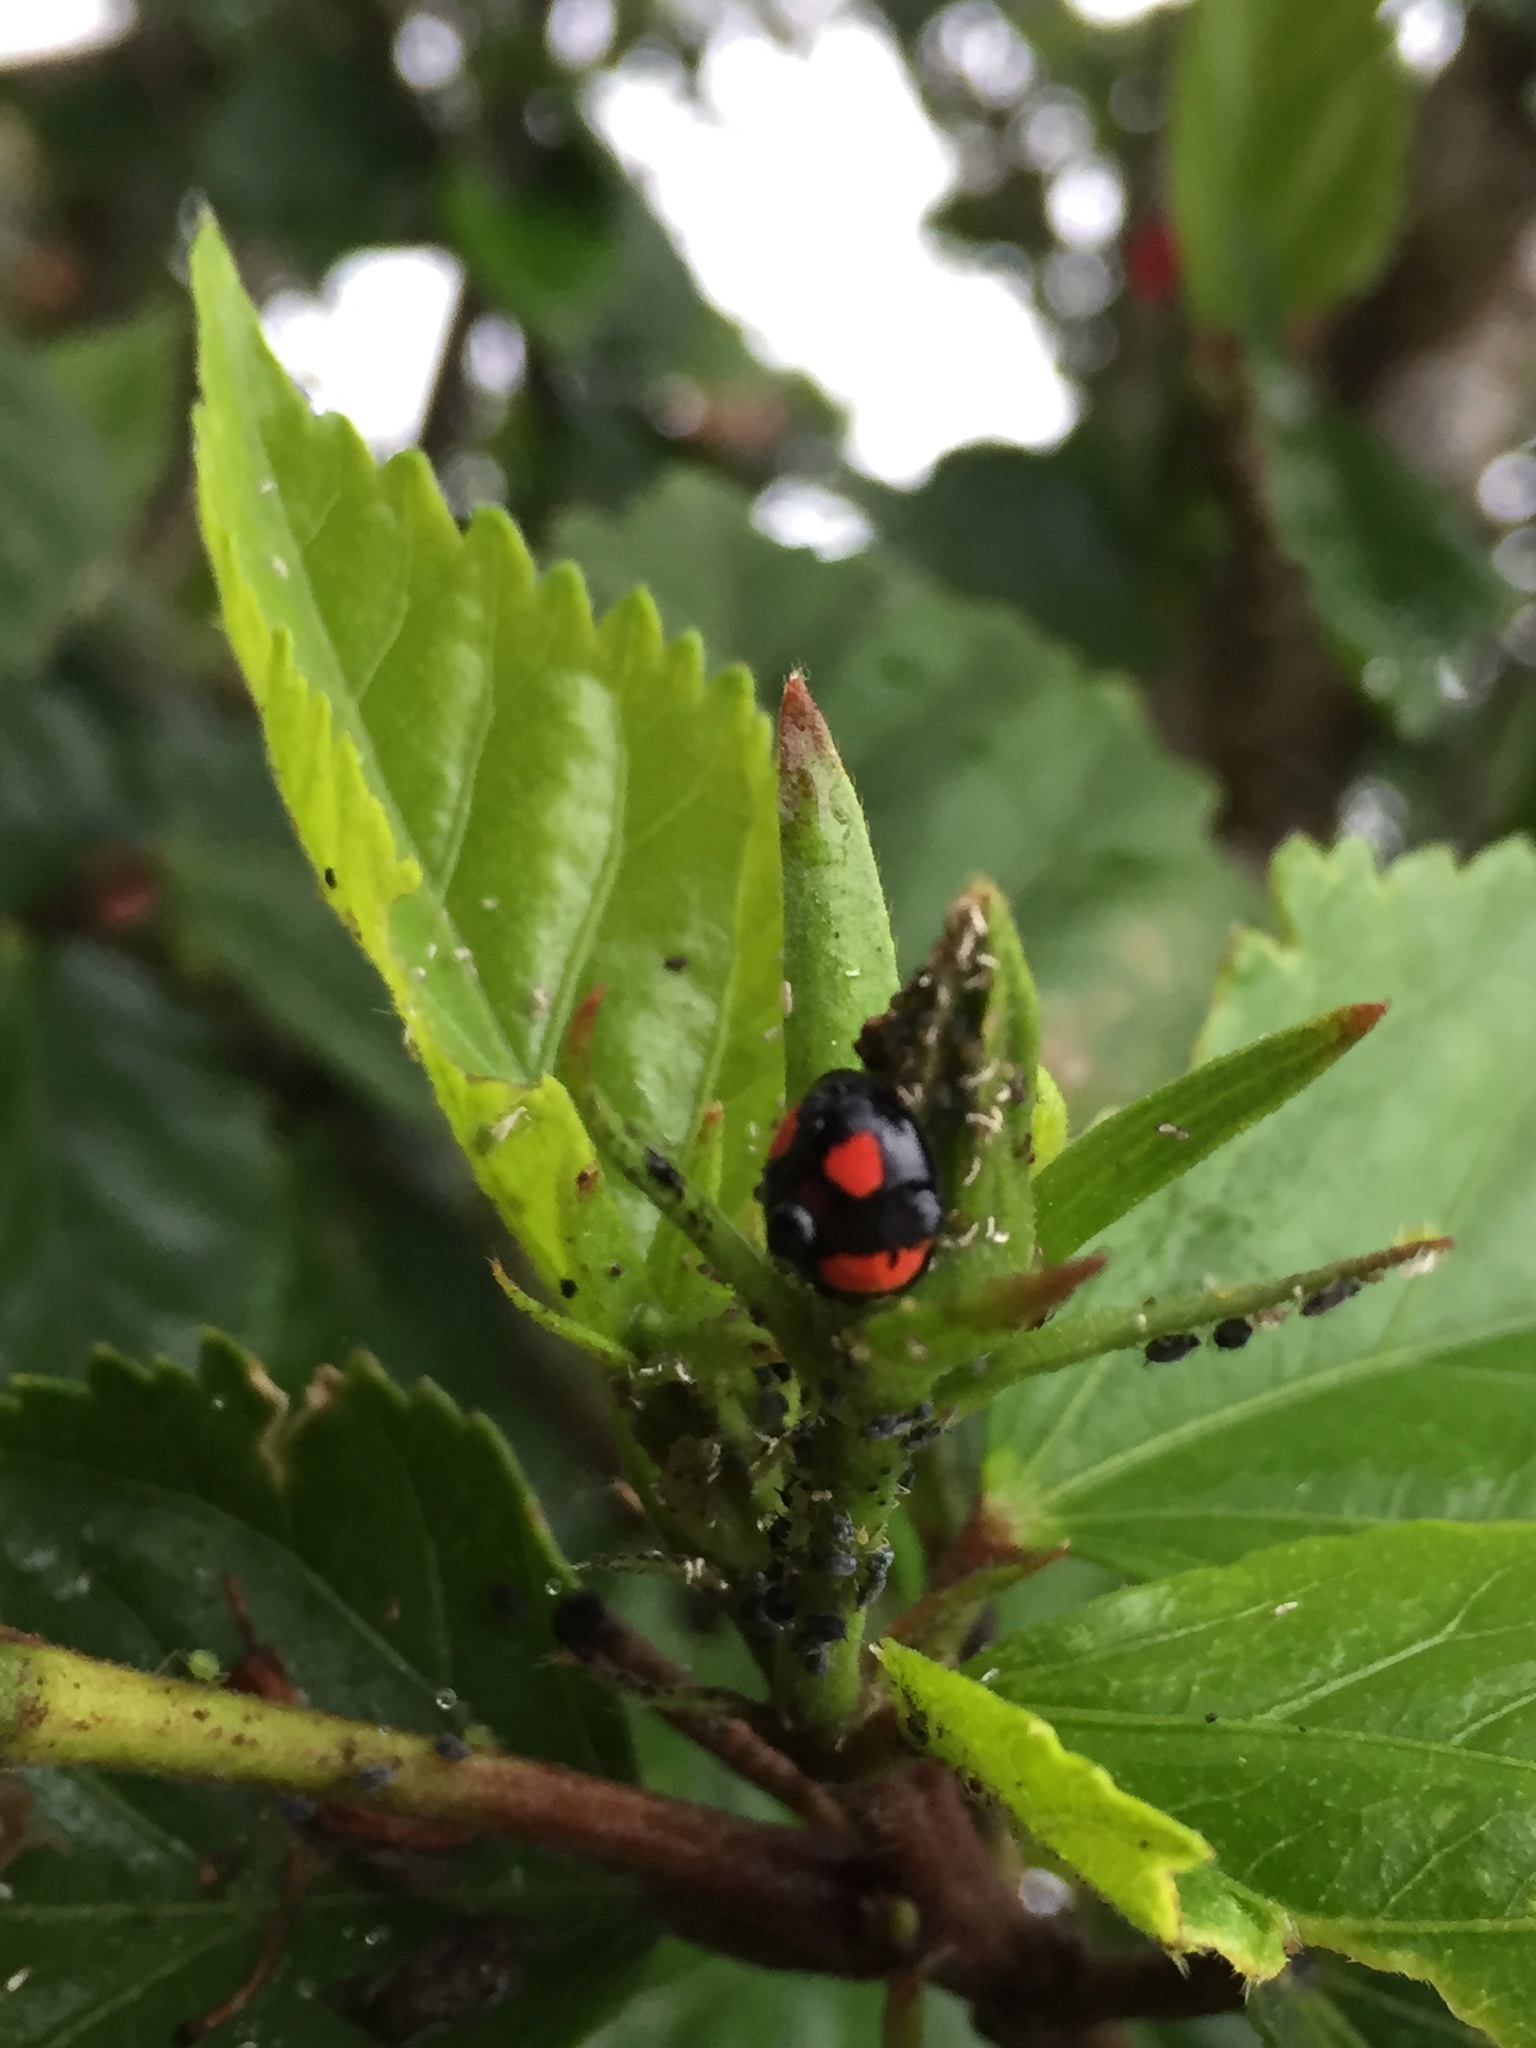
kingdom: Animalia
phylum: Arthropoda
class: Insecta
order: Coleoptera
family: Coccinellidae
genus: Cheilomenes
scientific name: Cheilomenes sexmaculata
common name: Ladybird beetle
